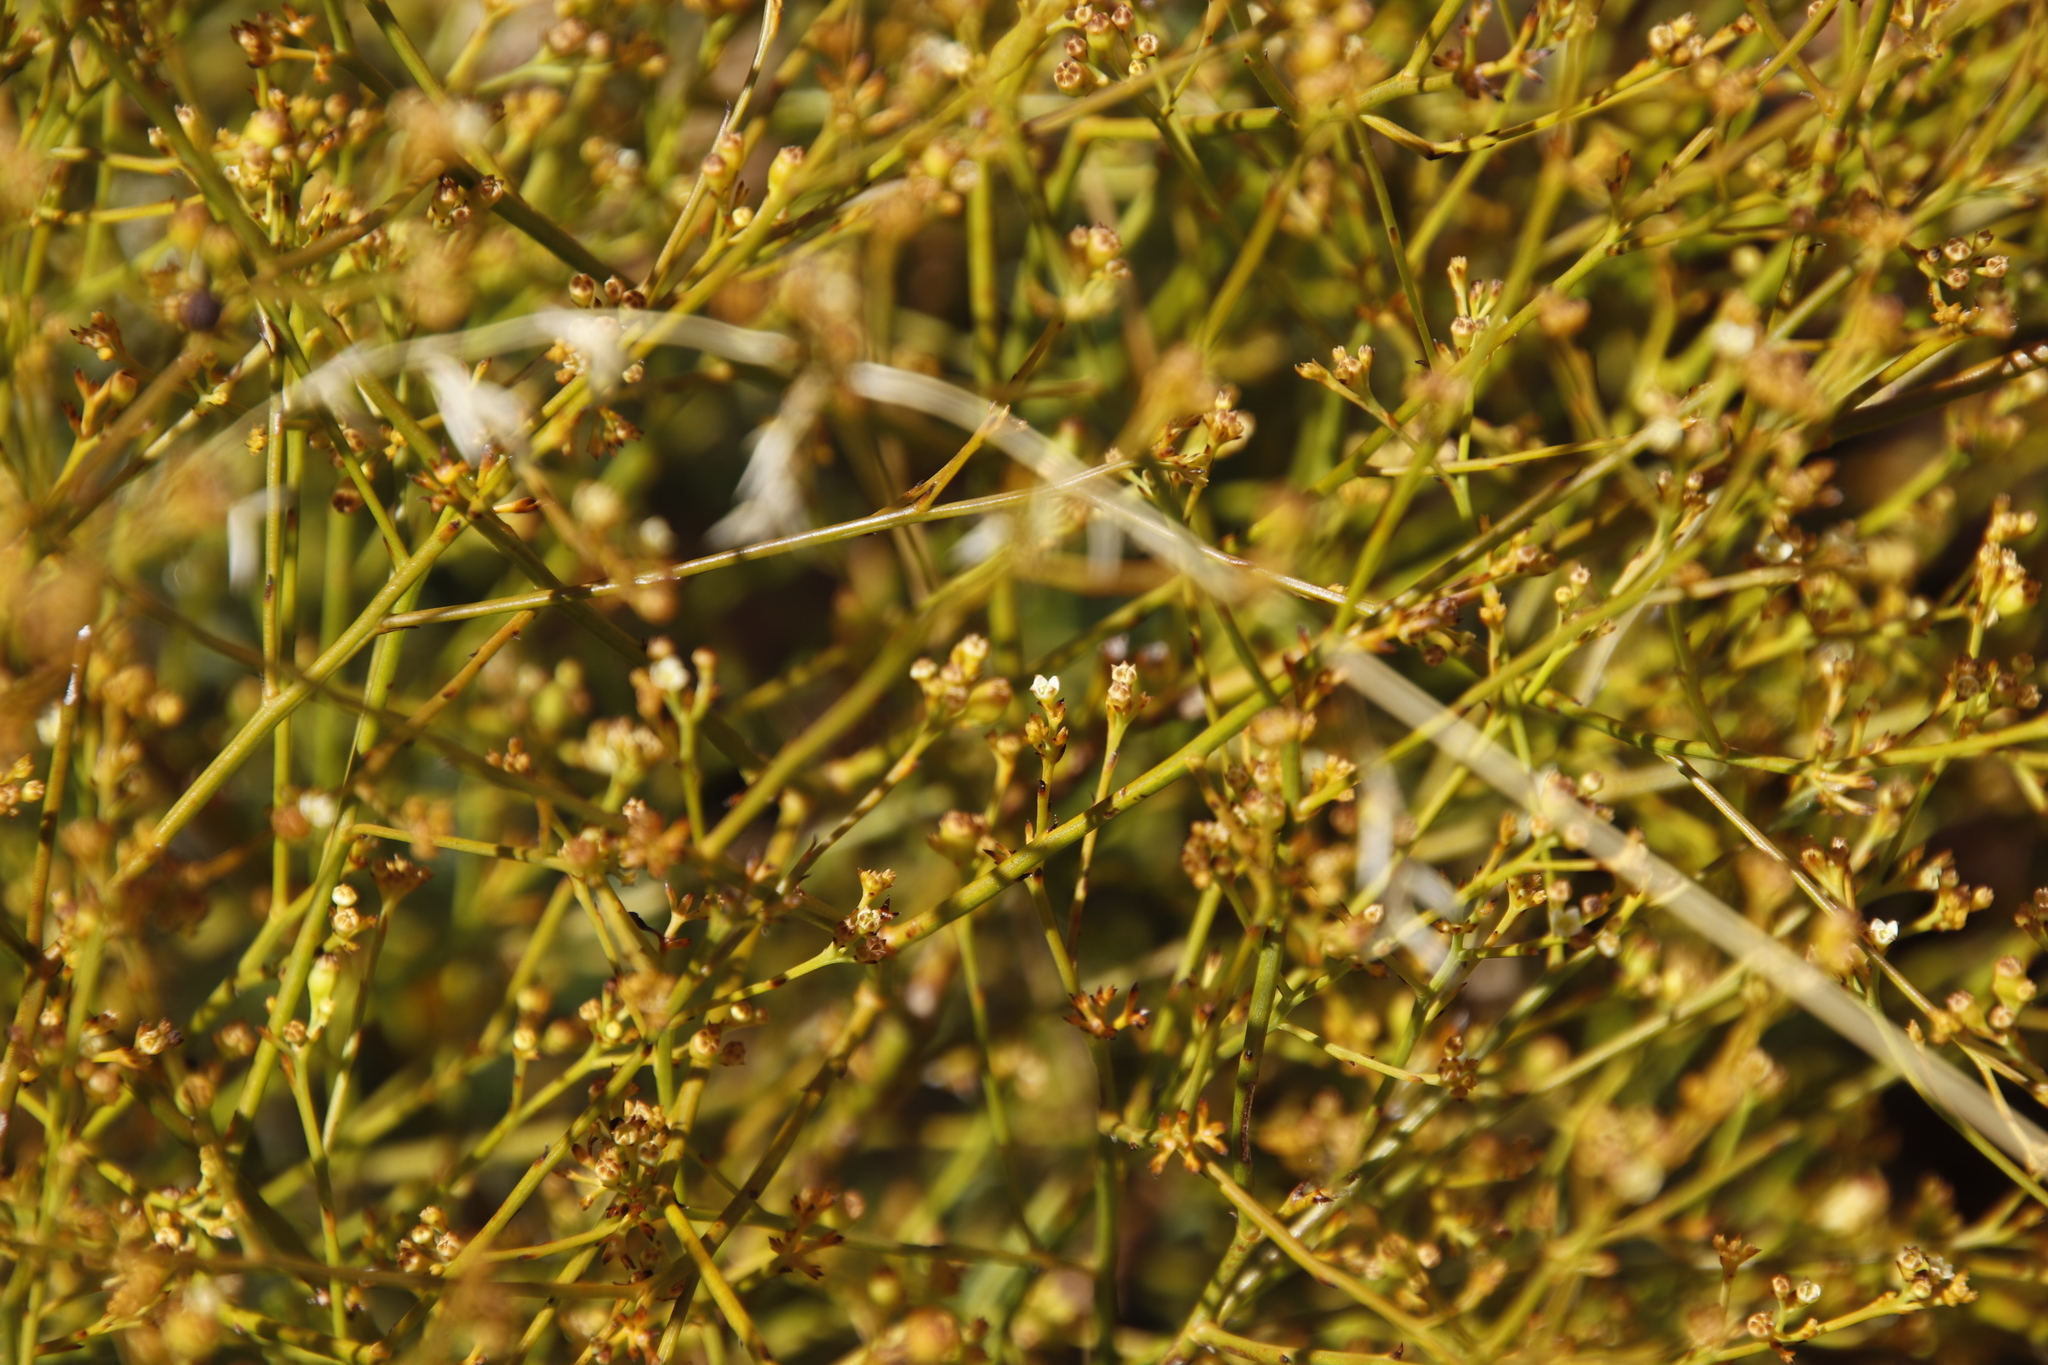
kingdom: Plantae
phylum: Tracheophyta
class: Magnoliopsida
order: Santalales
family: Thesiaceae
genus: Thesium
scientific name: Thesium virgatum
